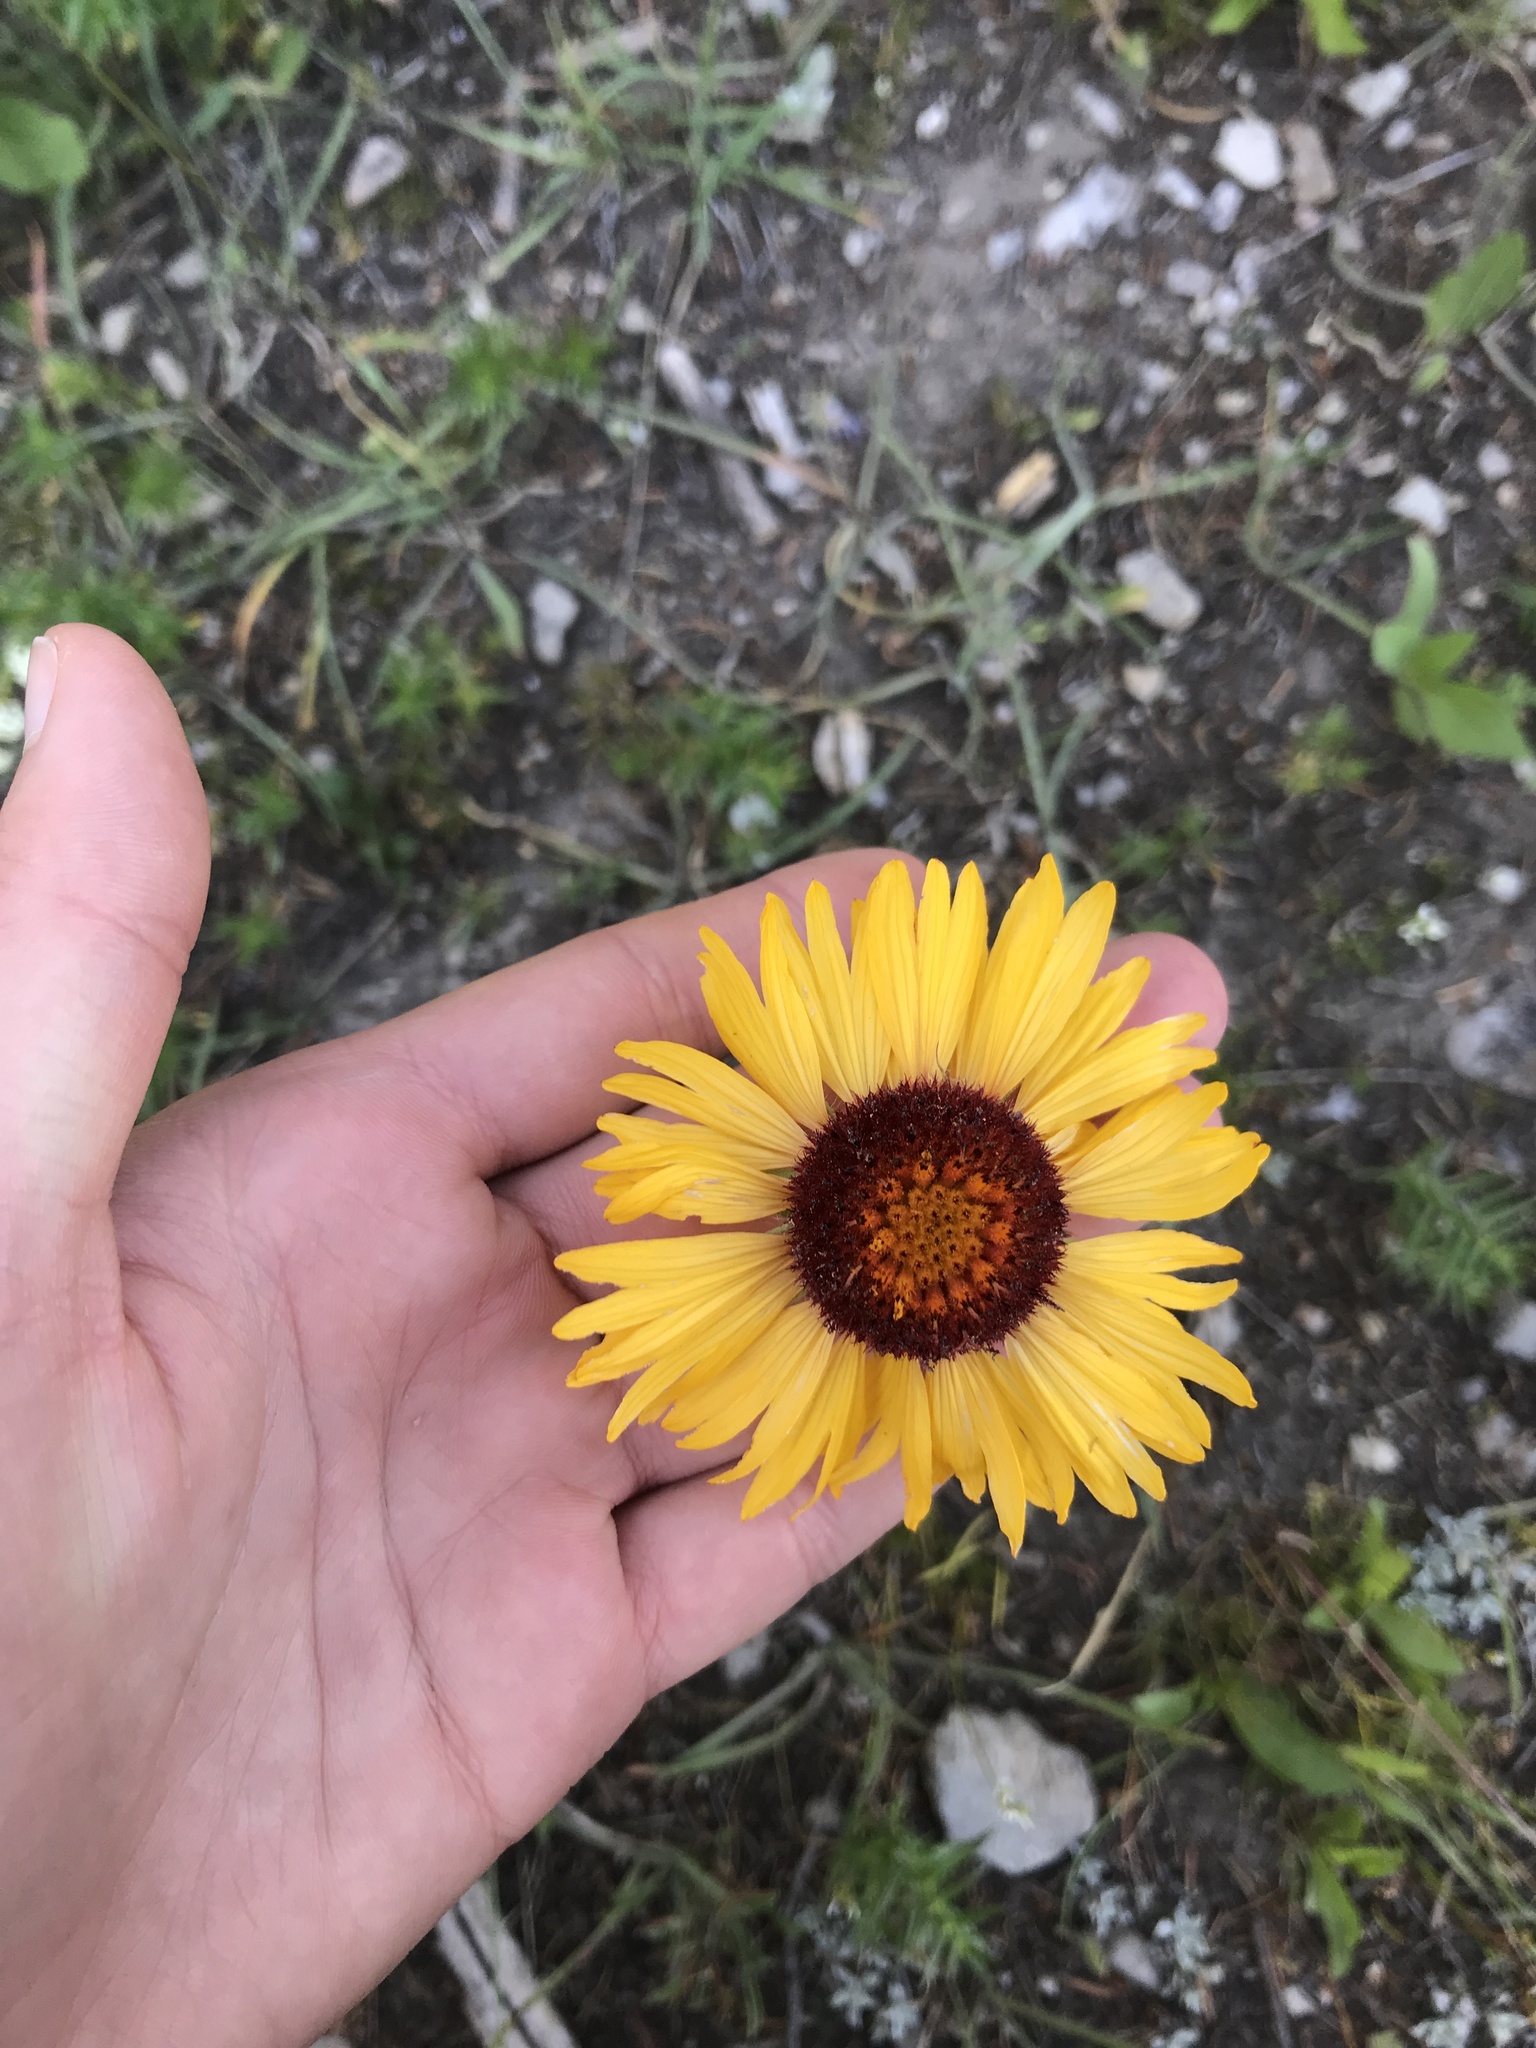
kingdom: Plantae
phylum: Tracheophyta
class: Magnoliopsida
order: Asterales
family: Asteraceae
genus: Gaillardia
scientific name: Gaillardia aristata
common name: Blanket-flower
